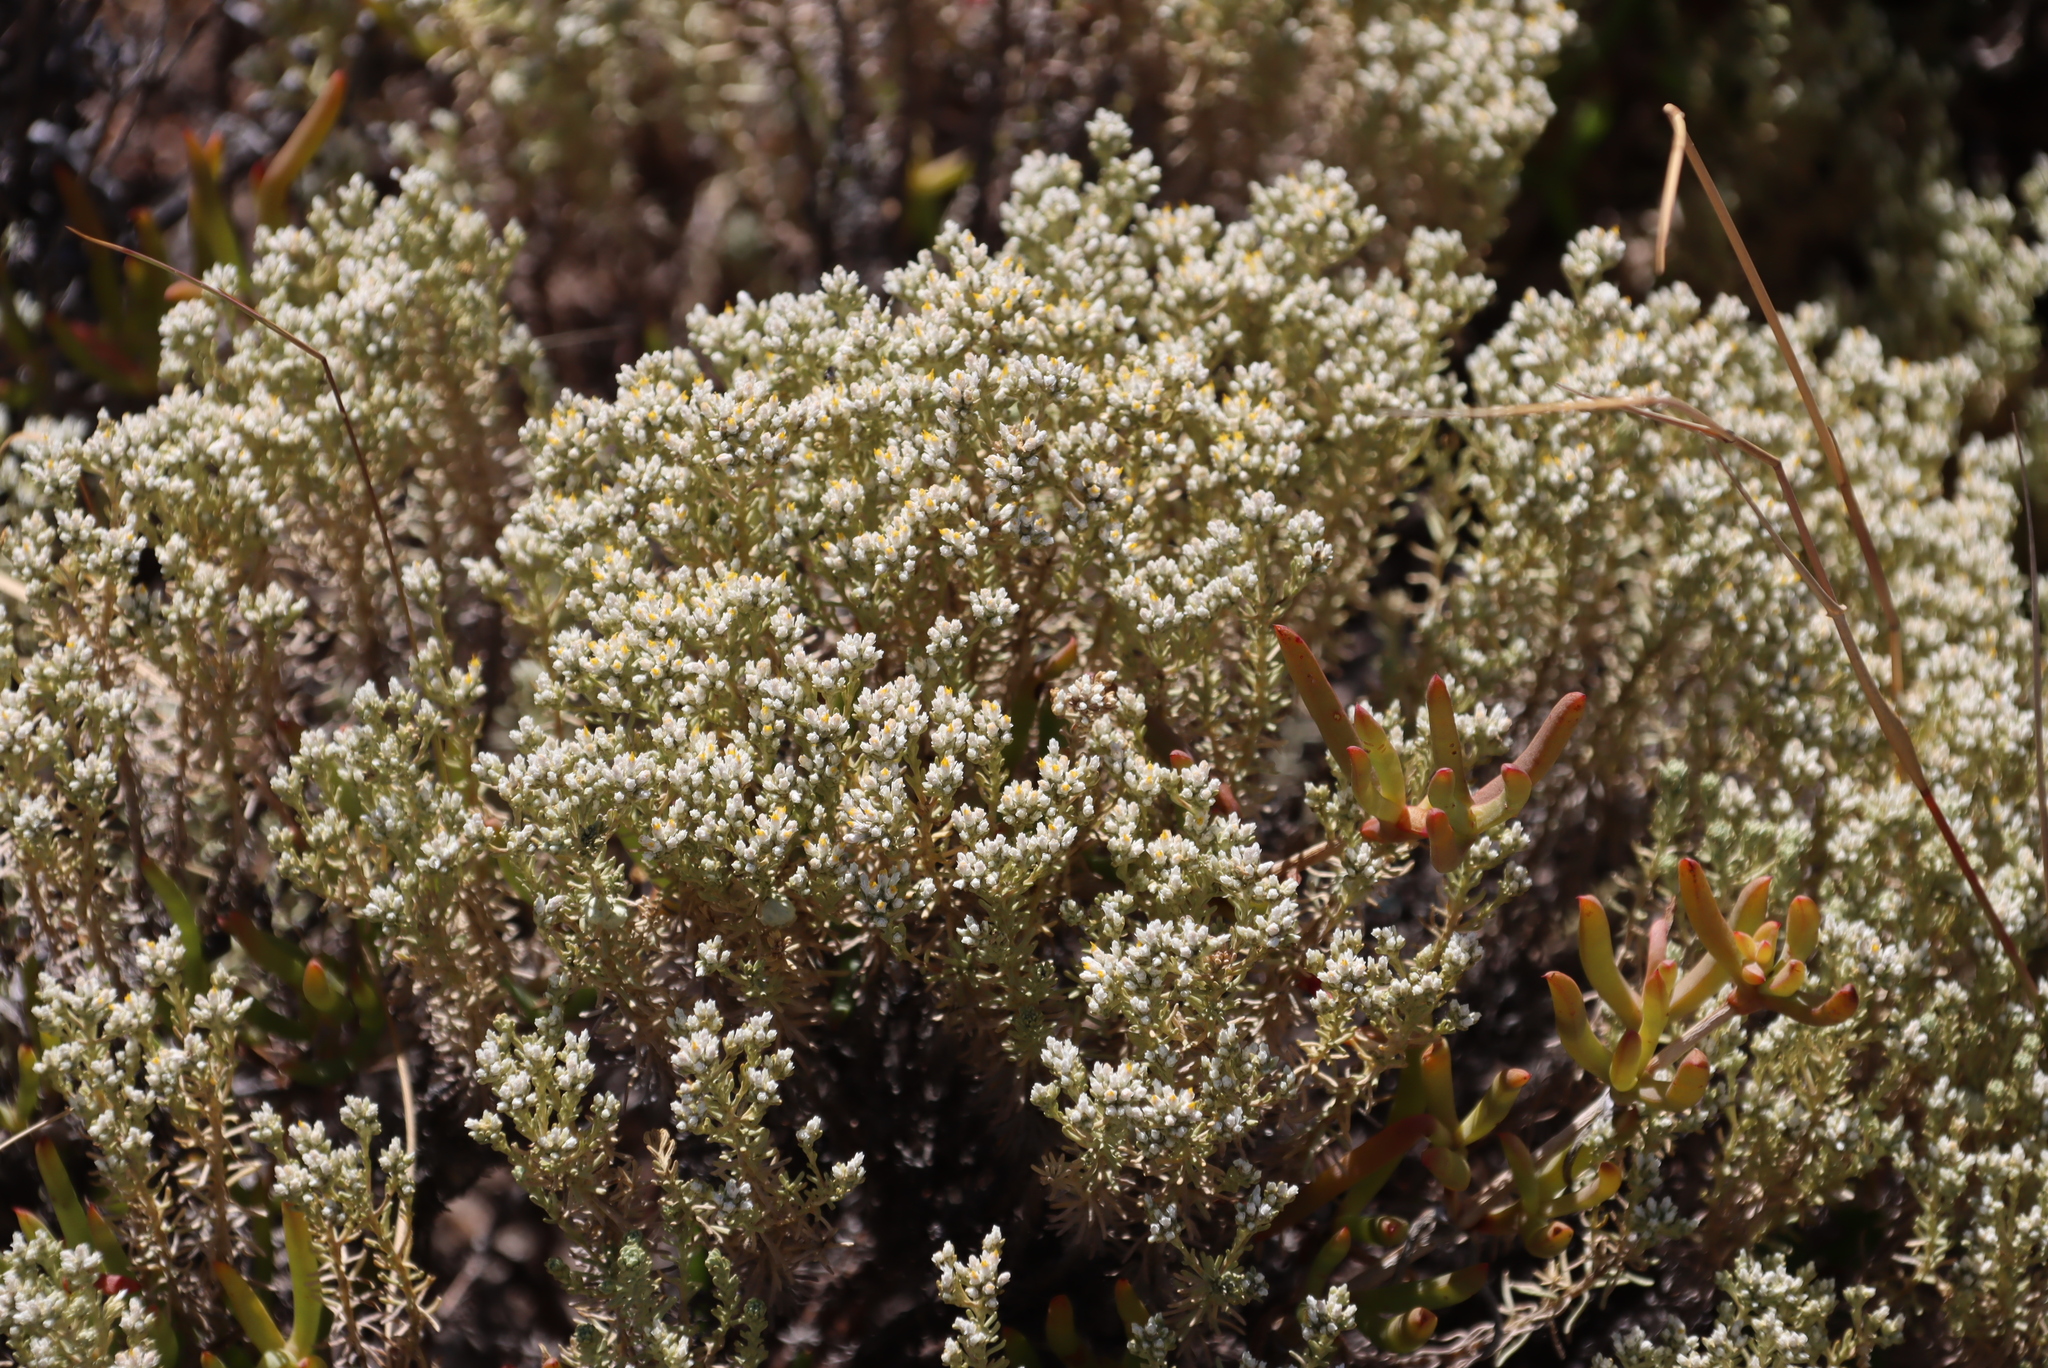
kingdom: Plantae
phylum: Tracheophyta
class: Magnoliopsida
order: Asterales
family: Asteraceae
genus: Helichrysum
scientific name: Helichrysum niveum
